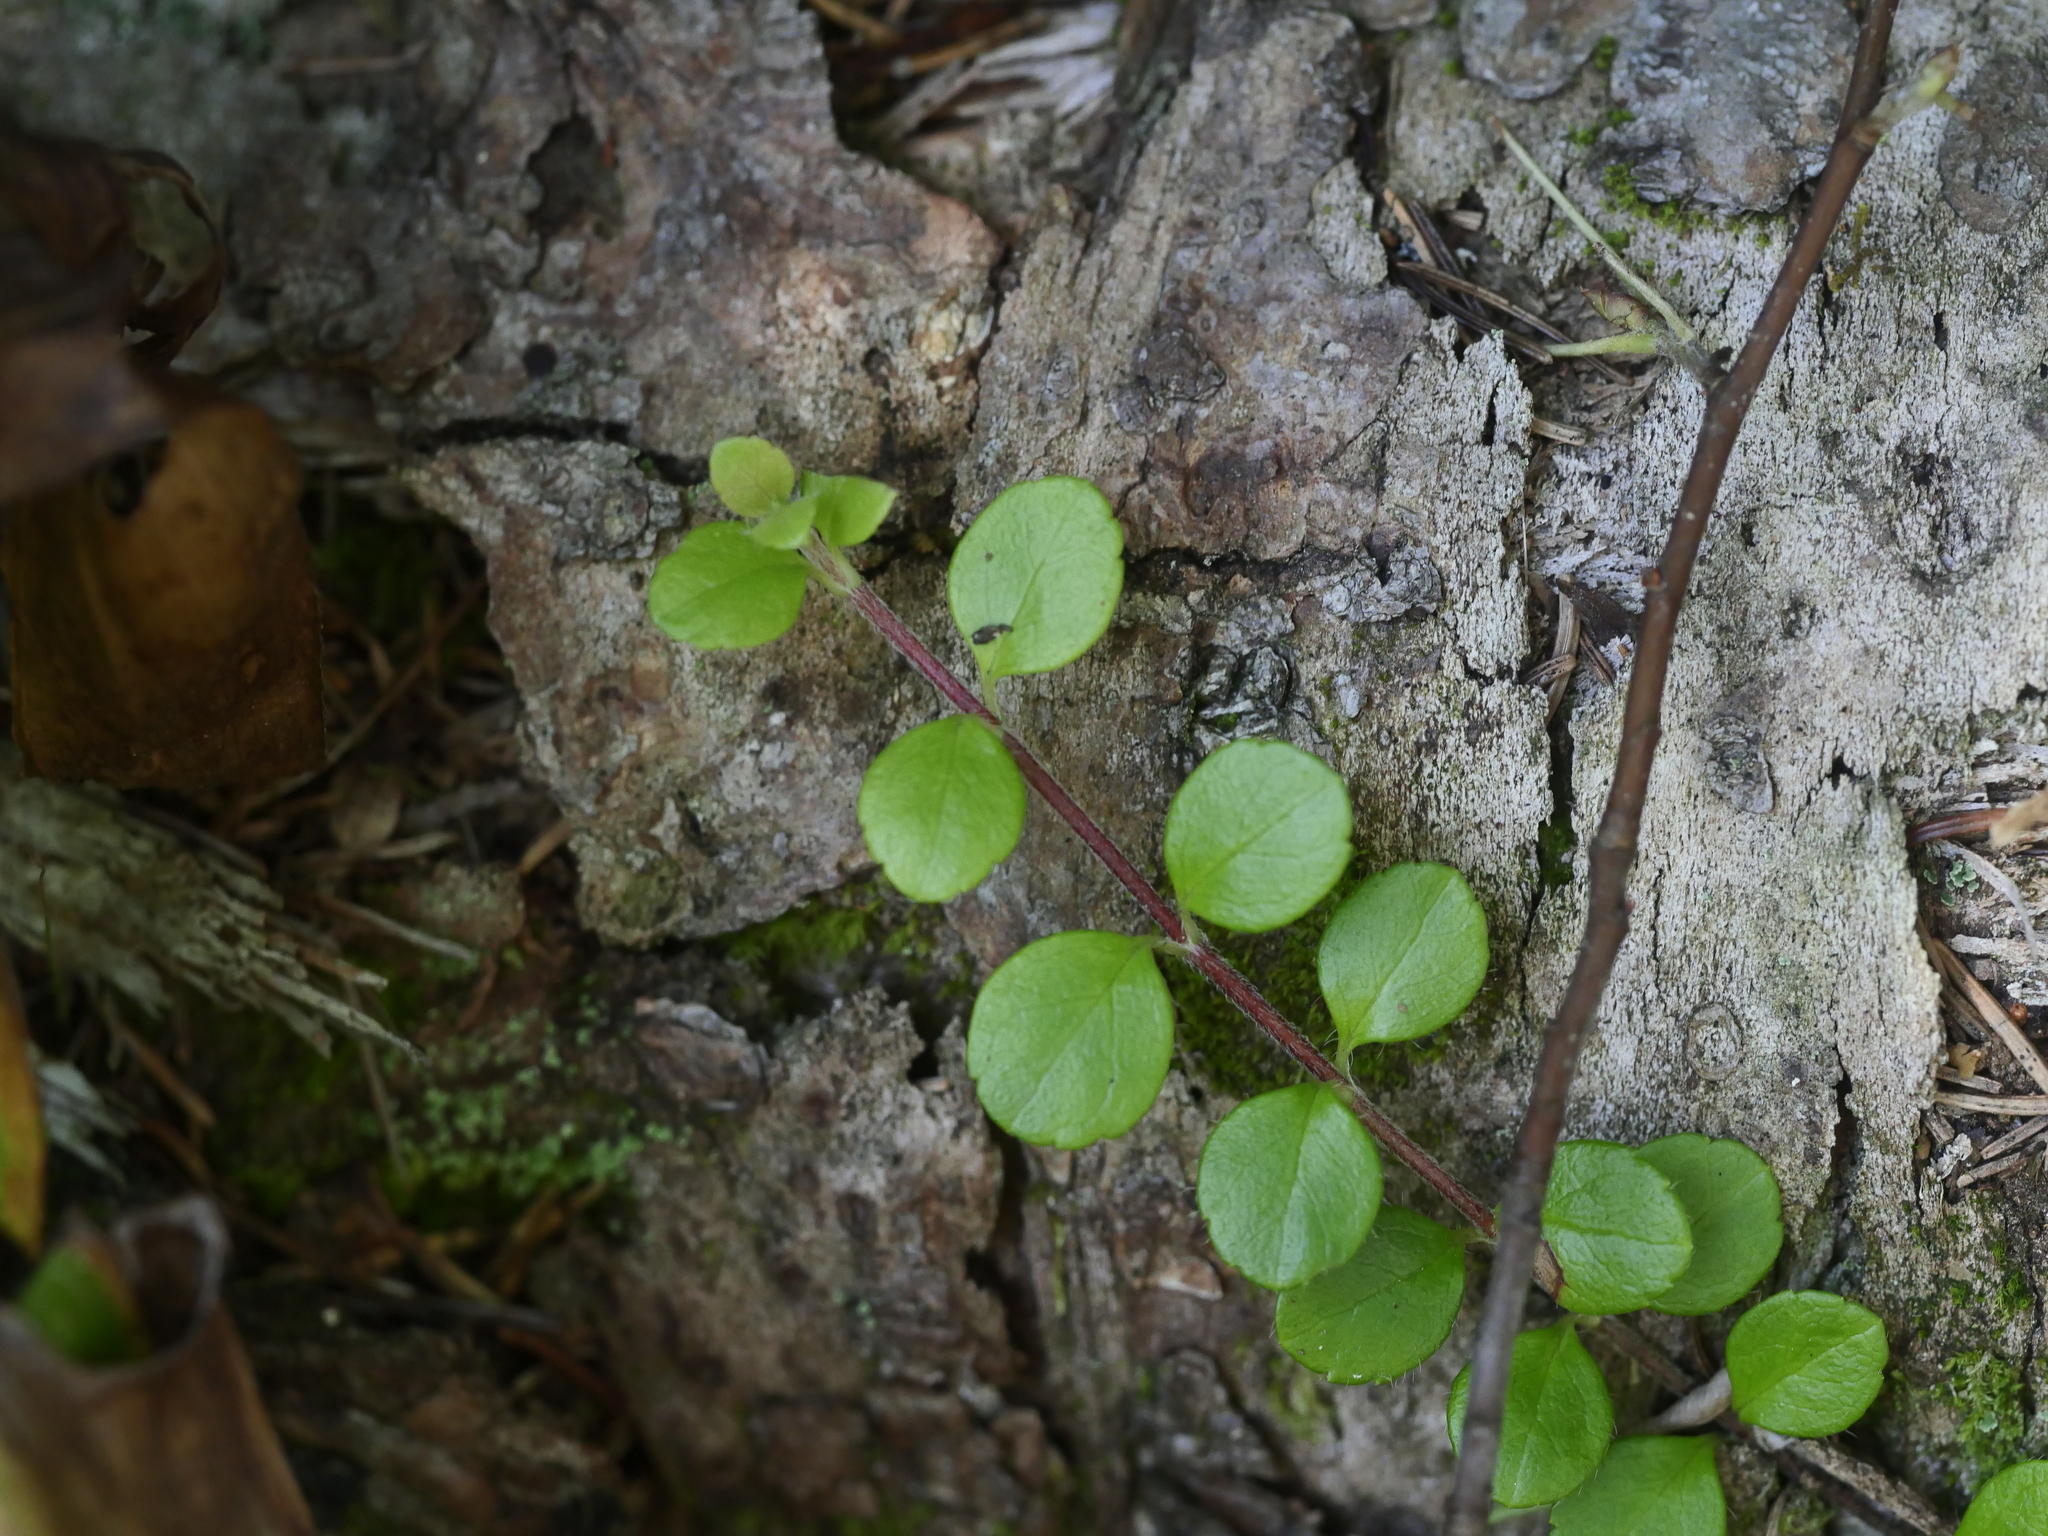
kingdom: Plantae
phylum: Tracheophyta
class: Magnoliopsida
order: Dipsacales
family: Caprifoliaceae
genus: Linnaea
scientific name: Linnaea borealis
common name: Twinflower
